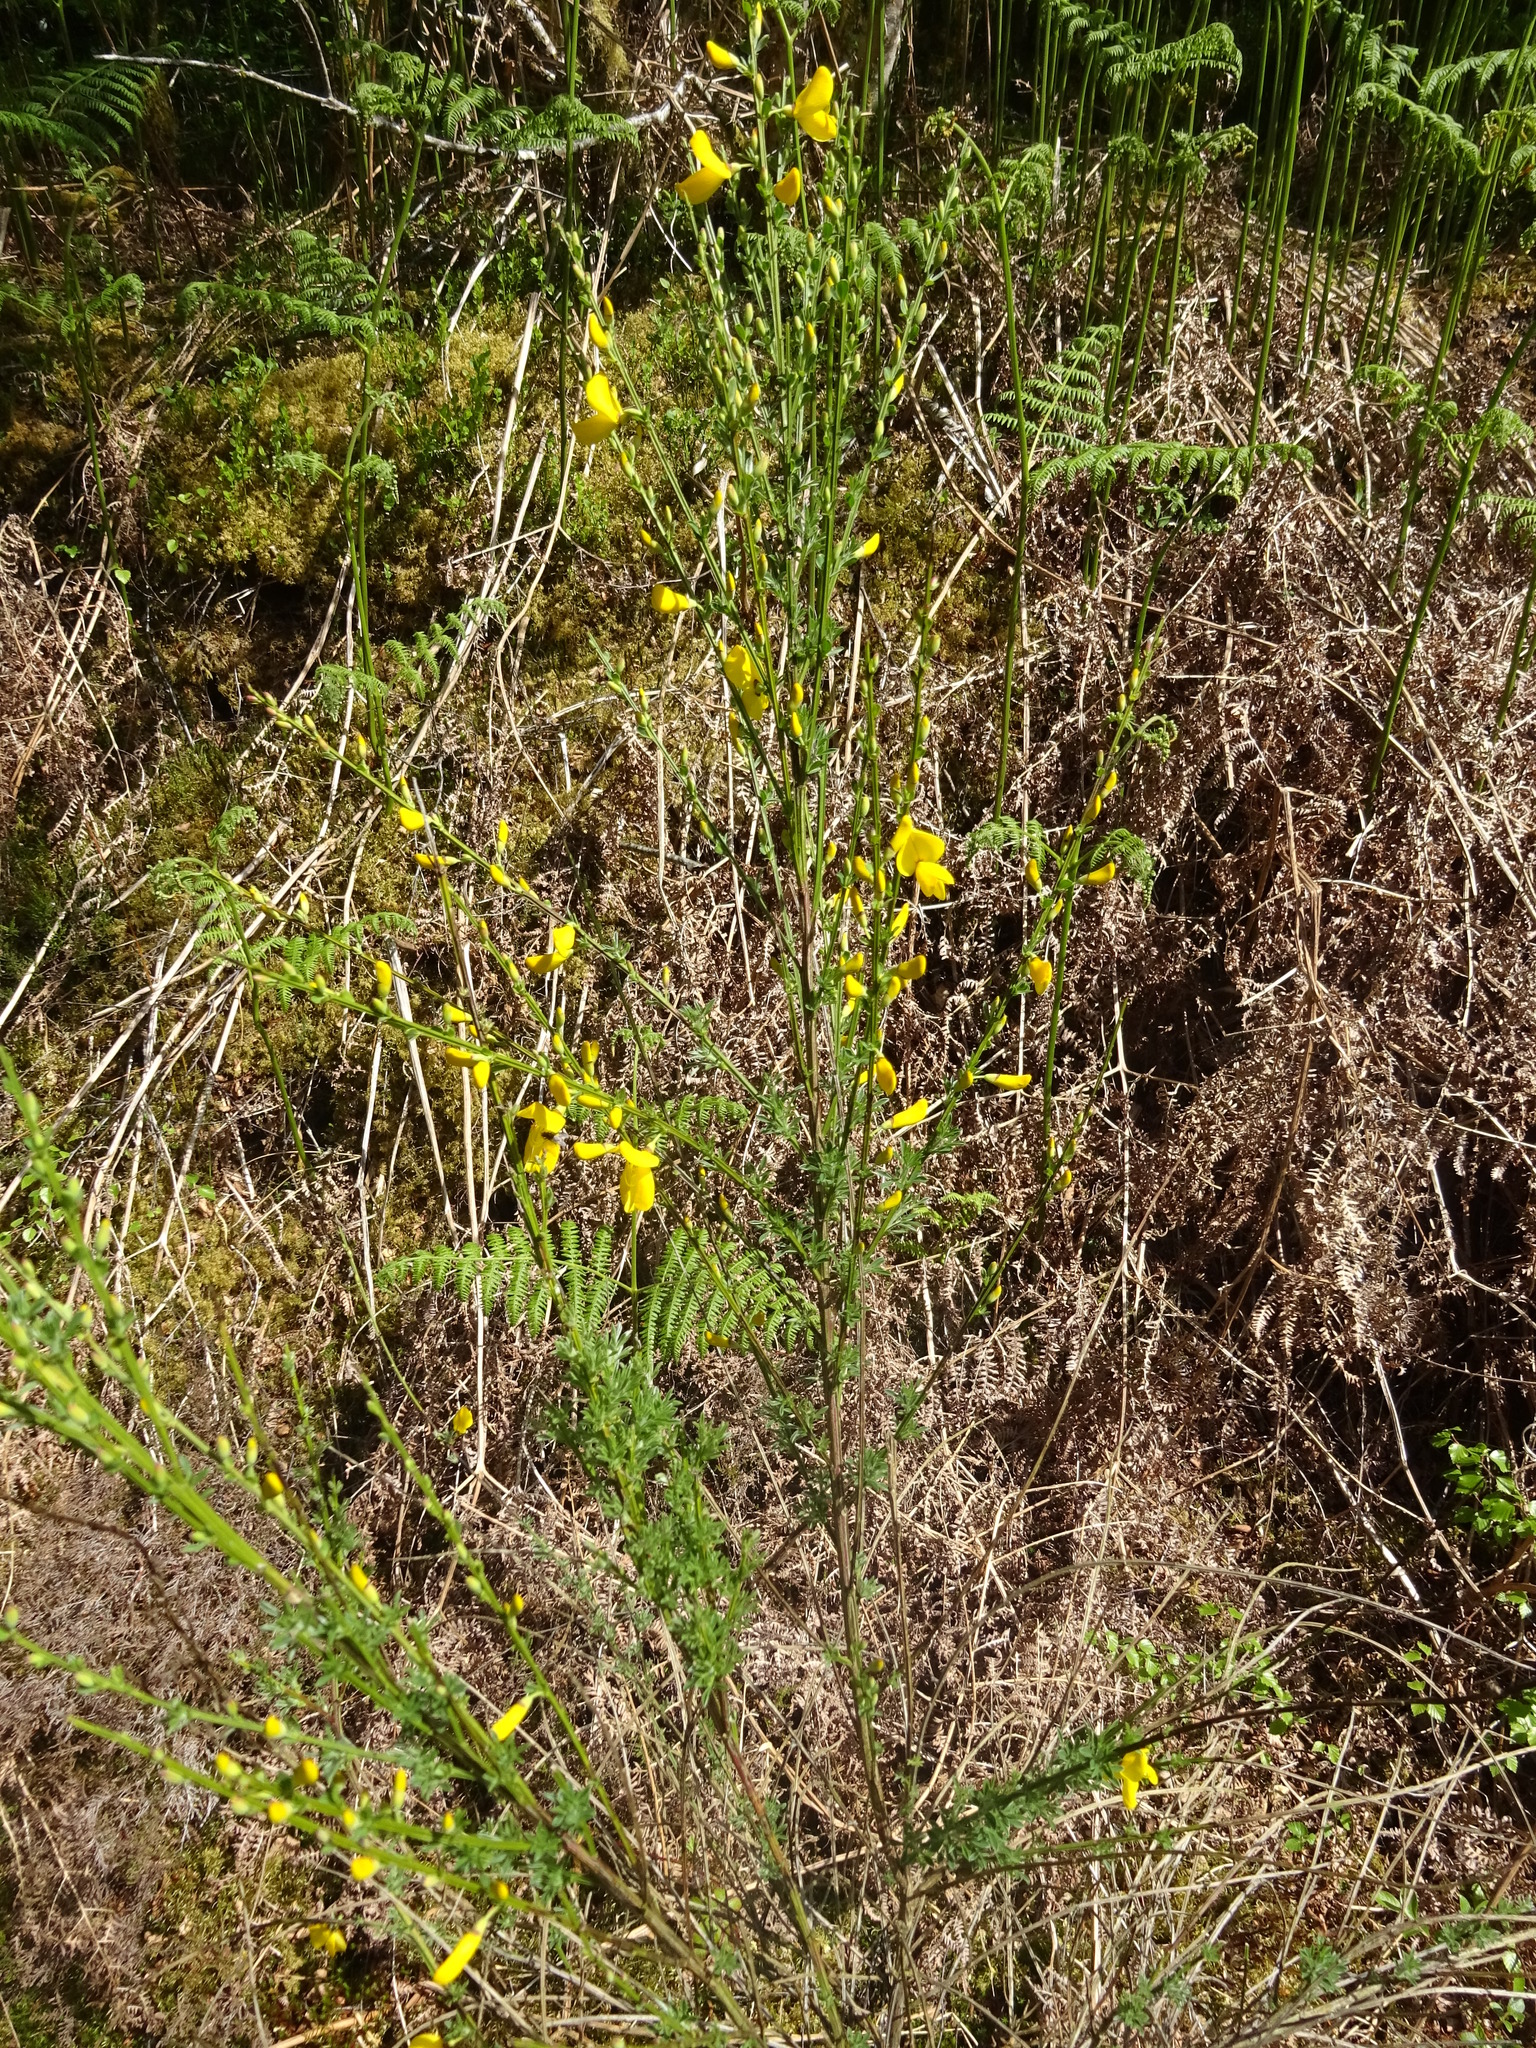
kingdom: Plantae
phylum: Tracheophyta
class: Magnoliopsida
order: Fabales
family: Fabaceae
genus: Cytisus
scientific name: Cytisus scoparius
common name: Scotch broom
